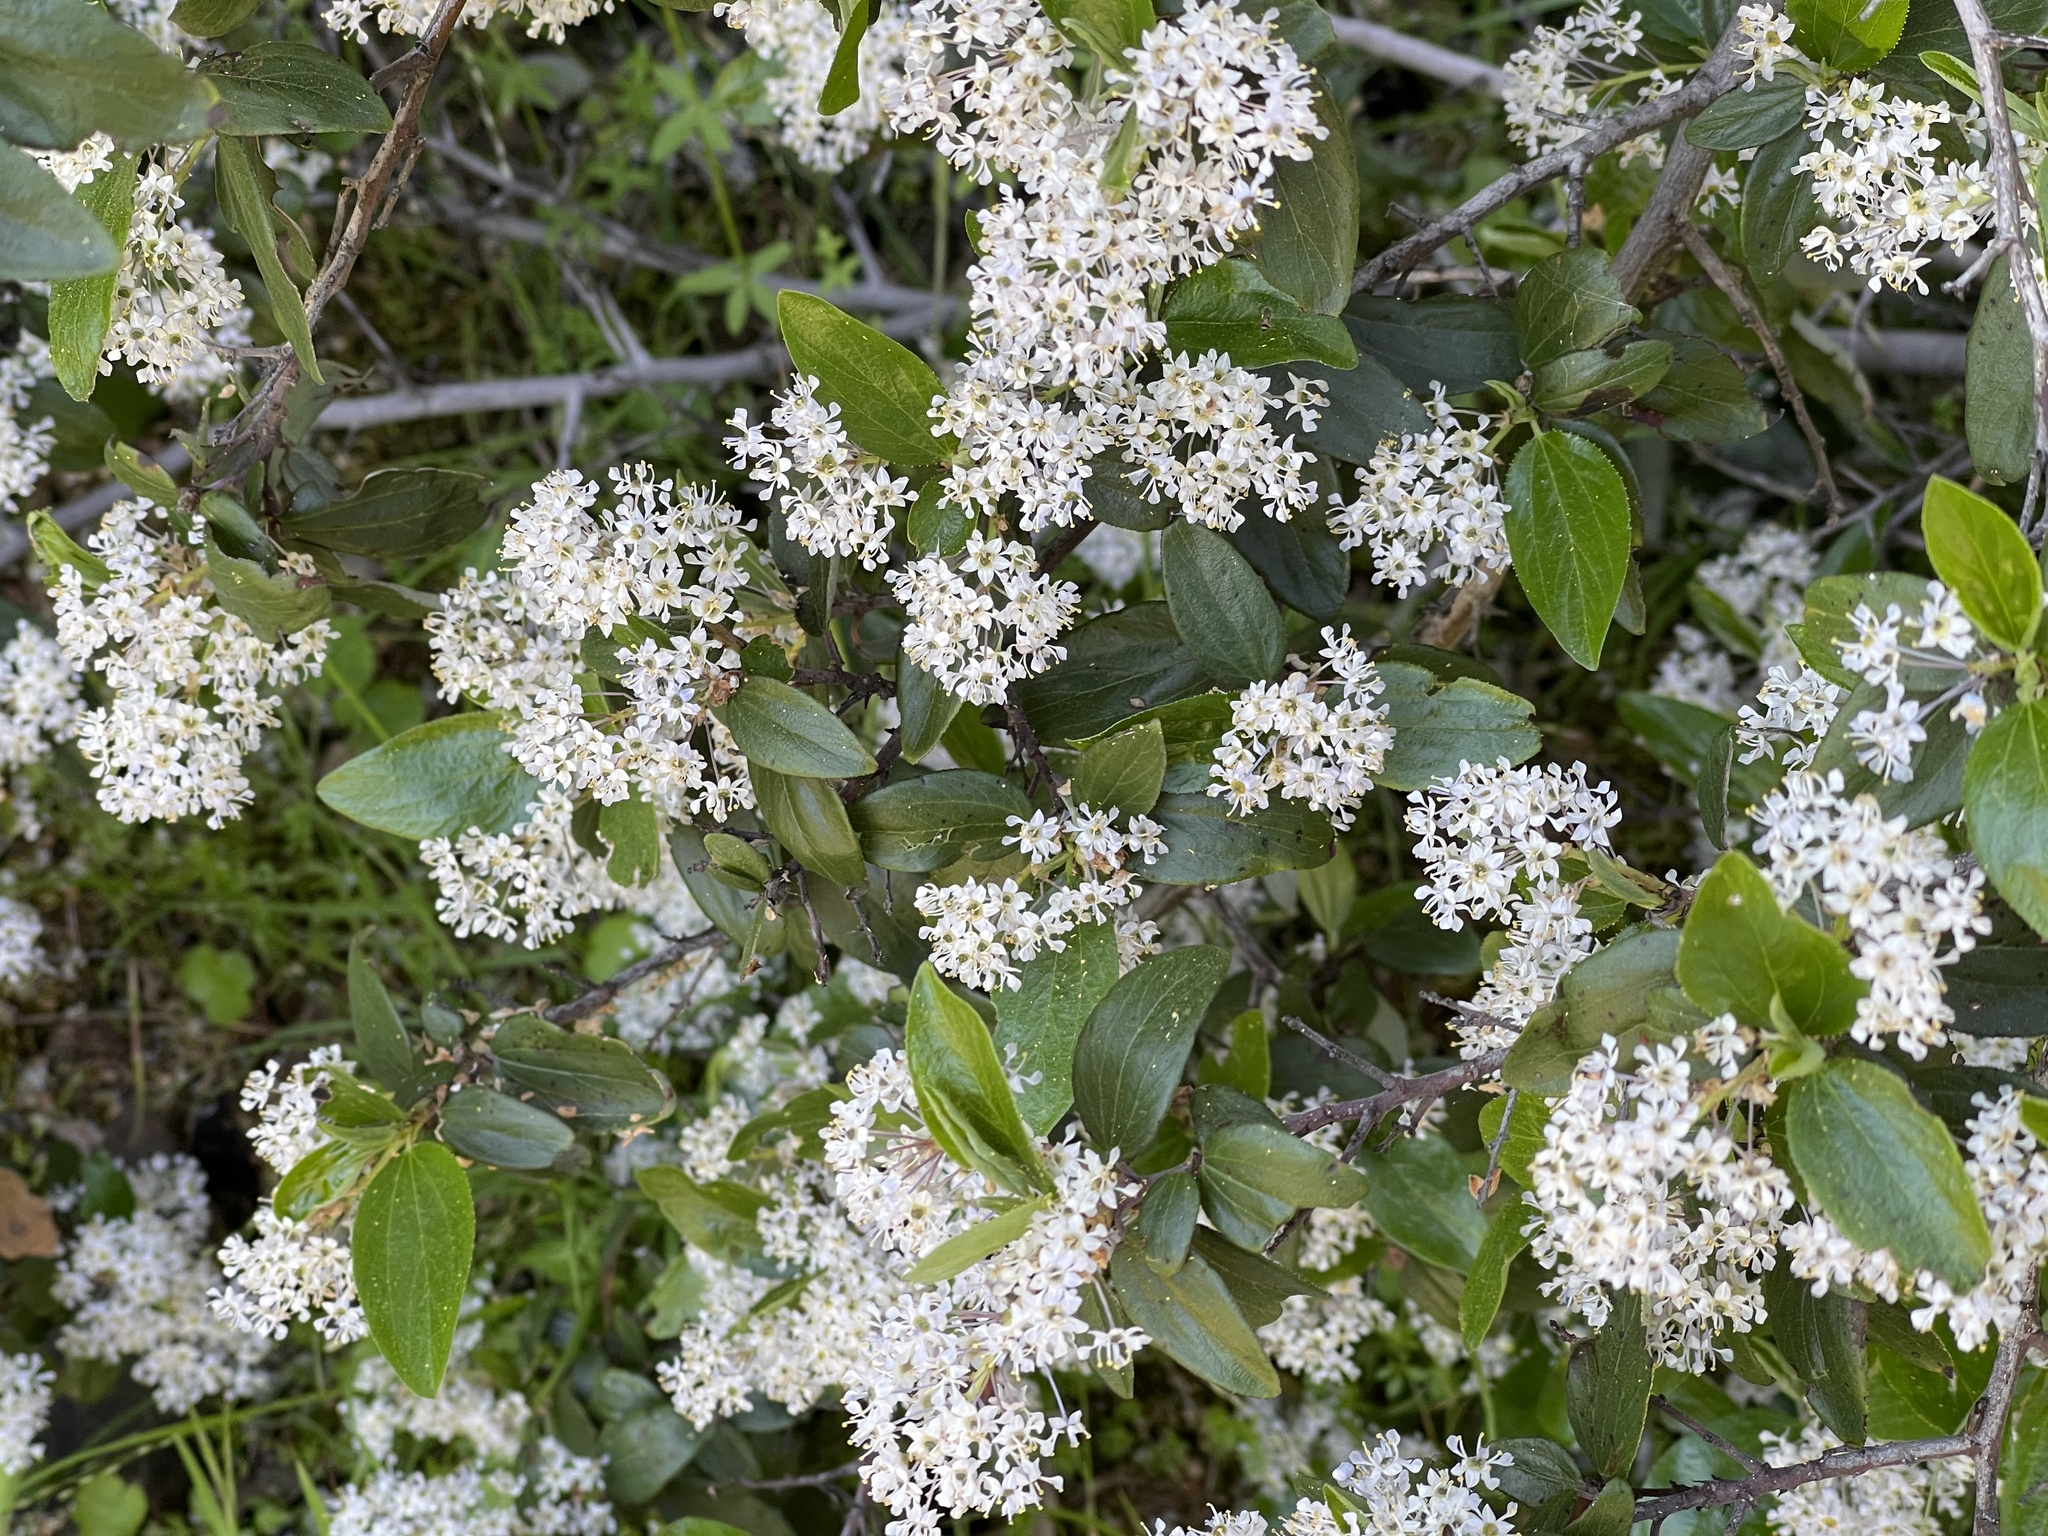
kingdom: Plantae
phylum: Tracheophyta
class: Magnoliopsida
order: Rosales
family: Rhamnaceae
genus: Ceanothus
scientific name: Ceanothus cuneatus
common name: Cuneate ceanothus
